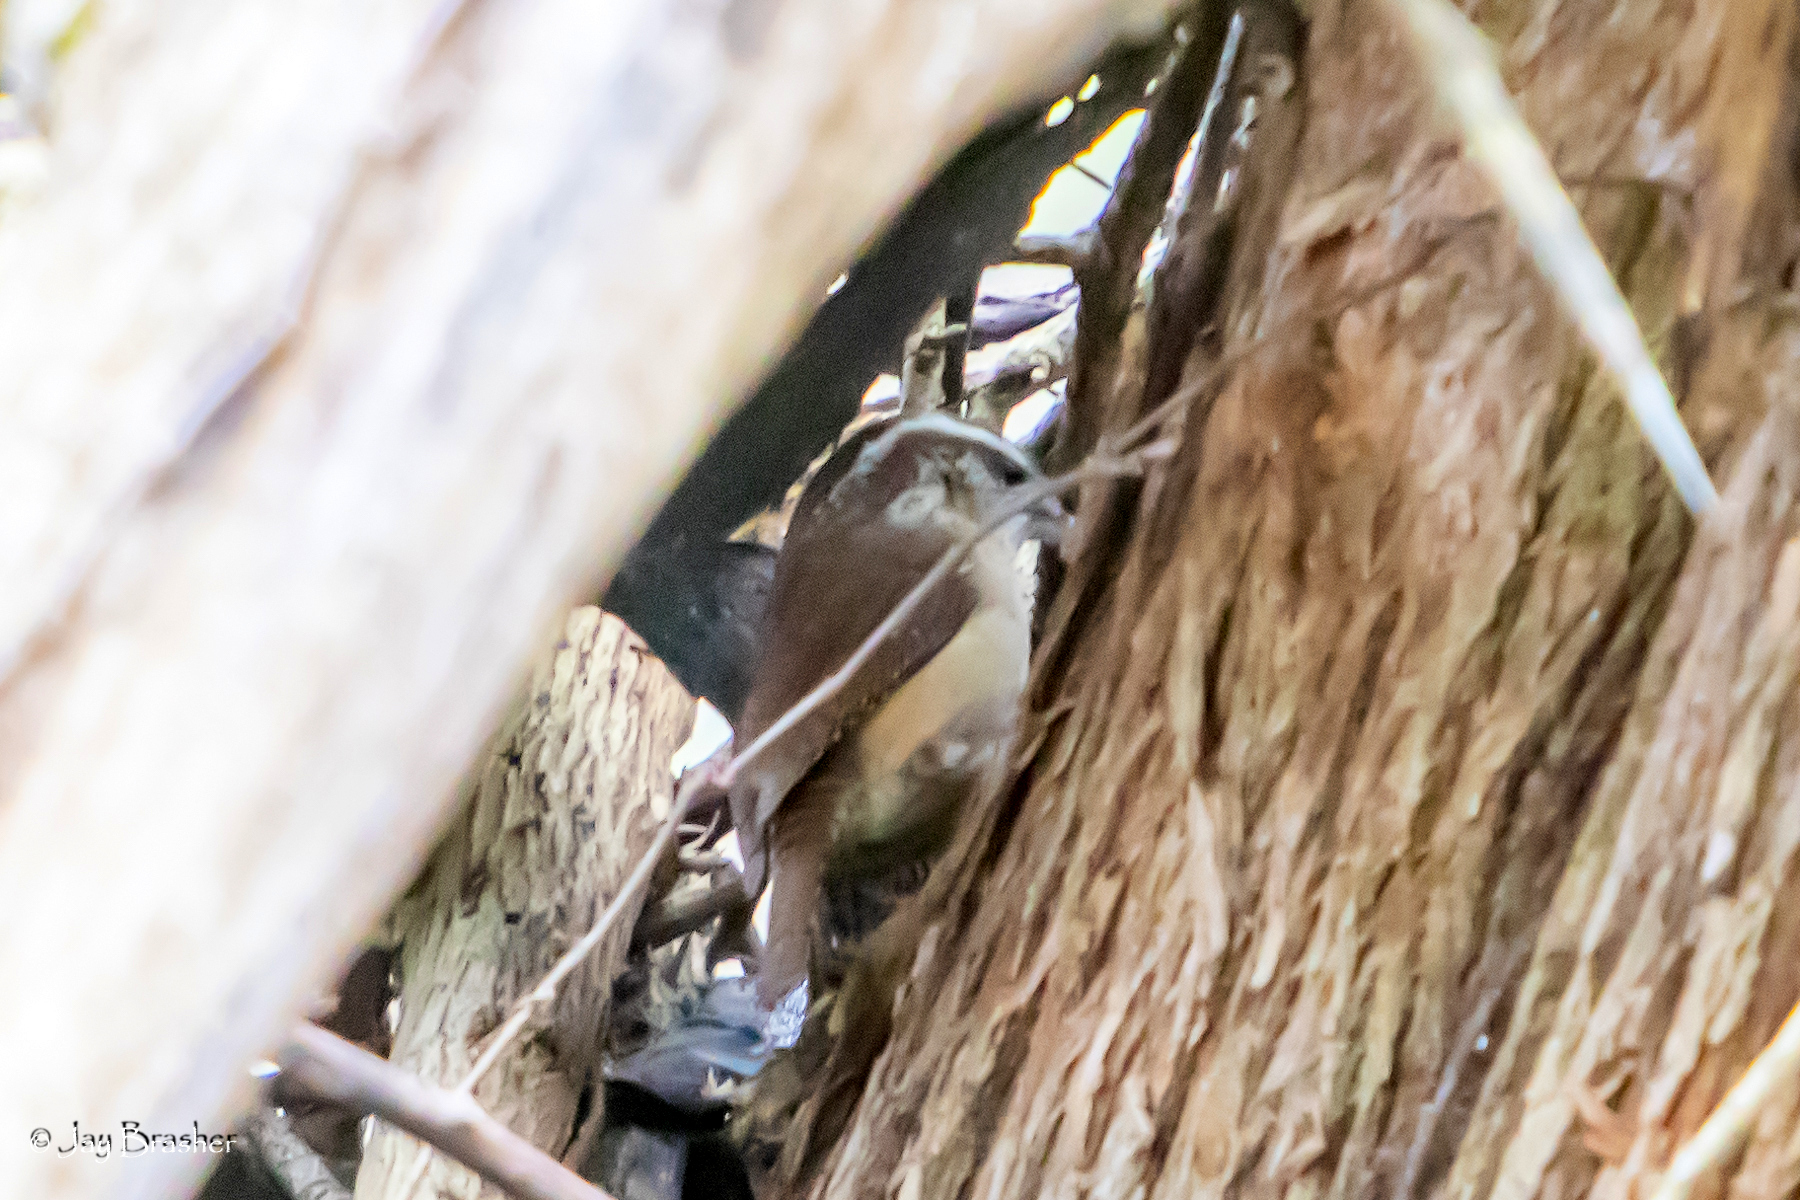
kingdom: Animalia
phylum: Chordata
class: Aves
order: Passeriformes
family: Troglodytidae
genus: Thryothorus
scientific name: Thryothorus ludovicianus
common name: Carolina wren
